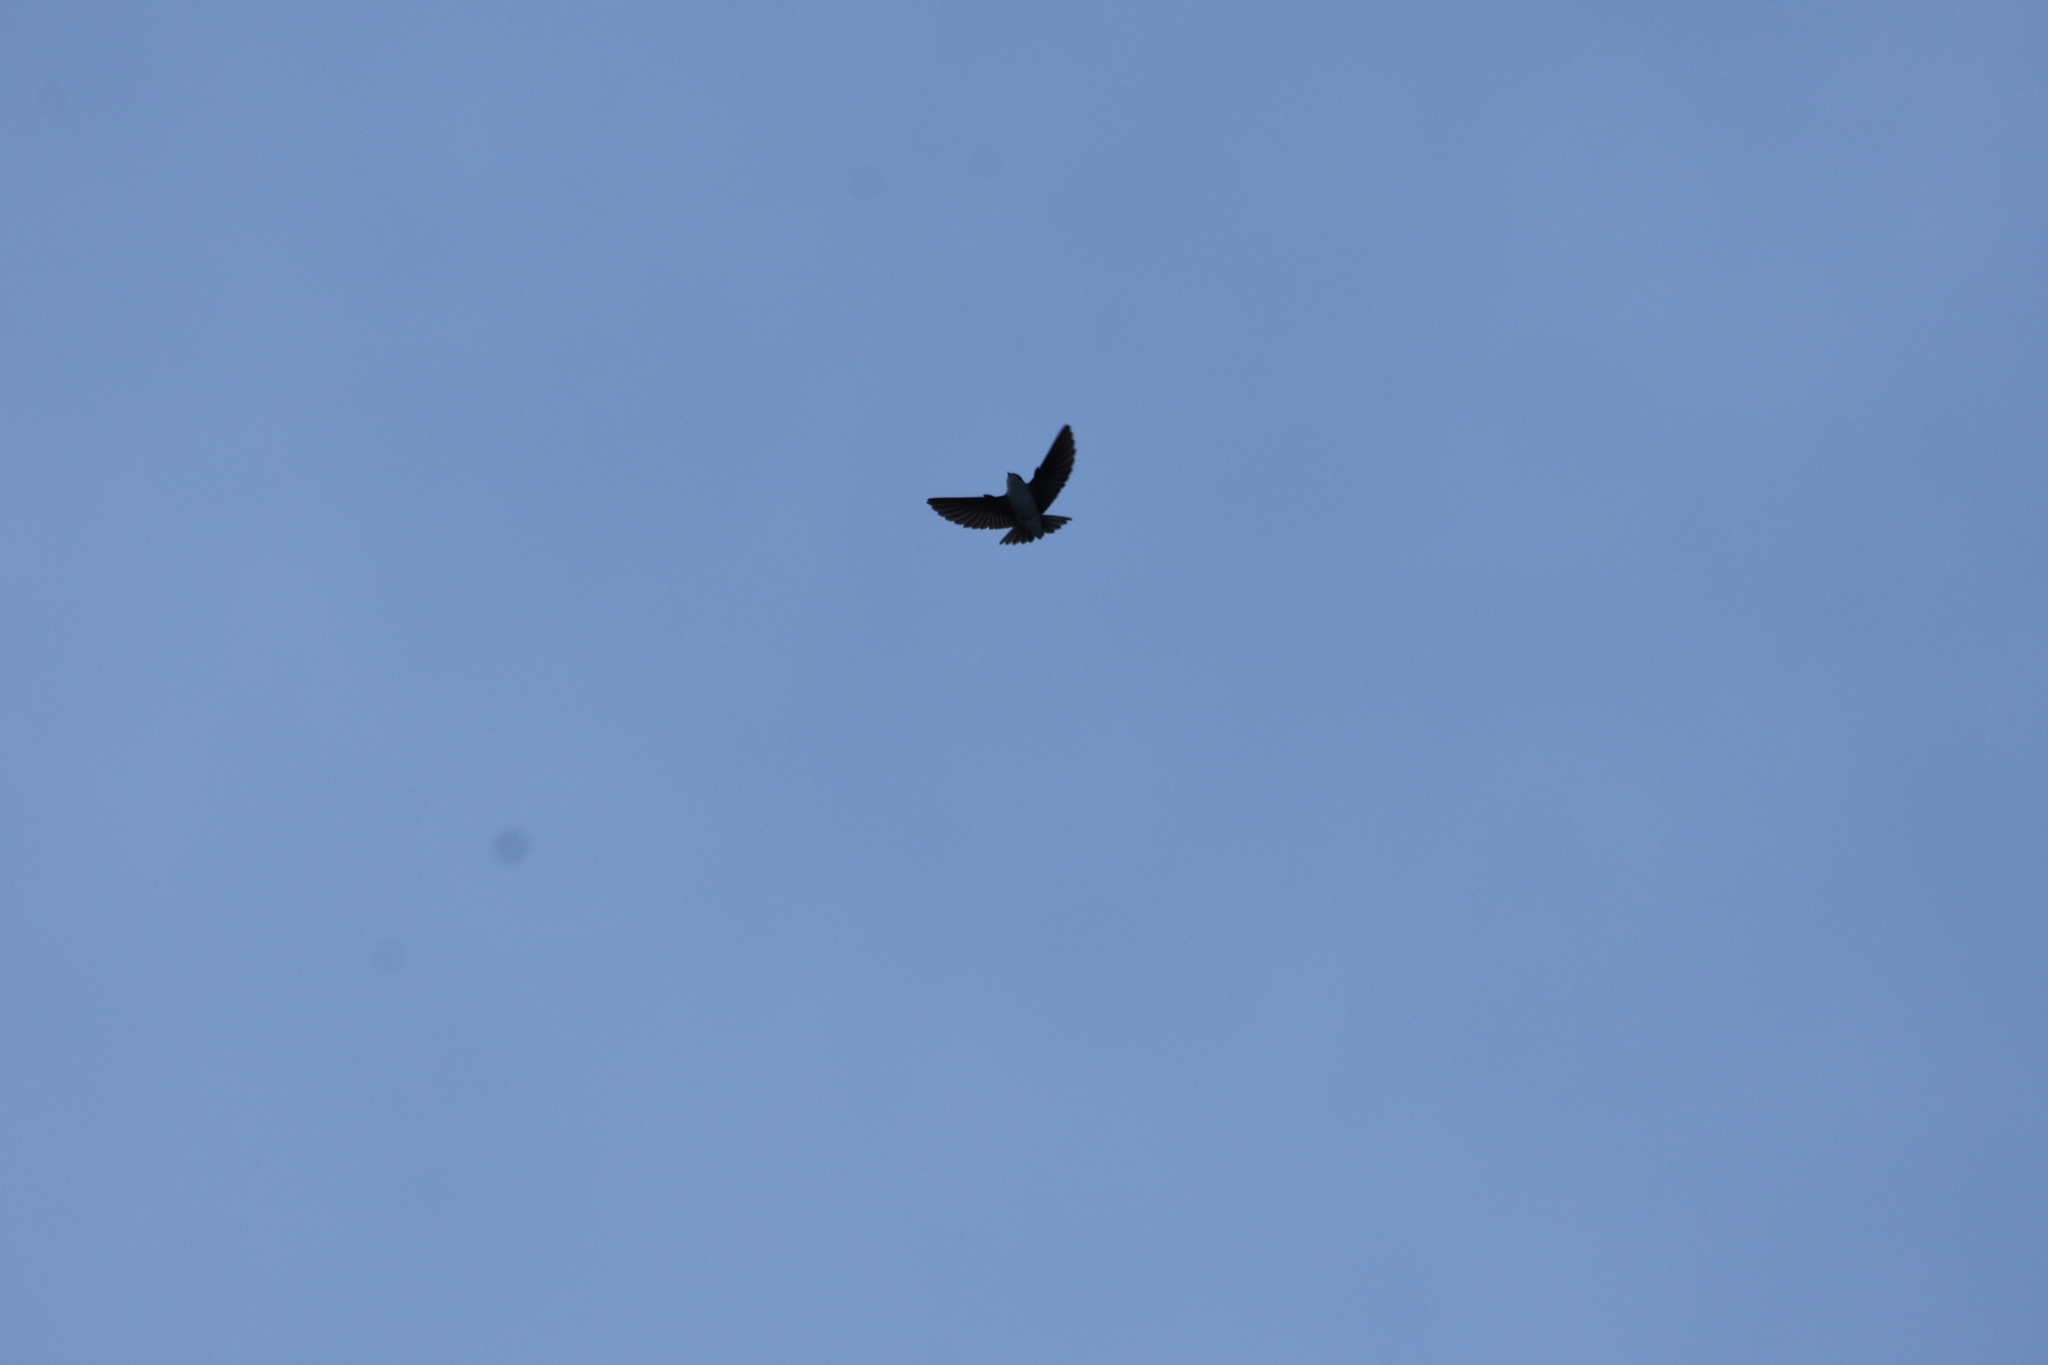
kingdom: Animalia
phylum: Chordata
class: Aves
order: Passeriformes
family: Hirundinidae
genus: Delichon
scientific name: Delichon urbicum
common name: Common house martin
